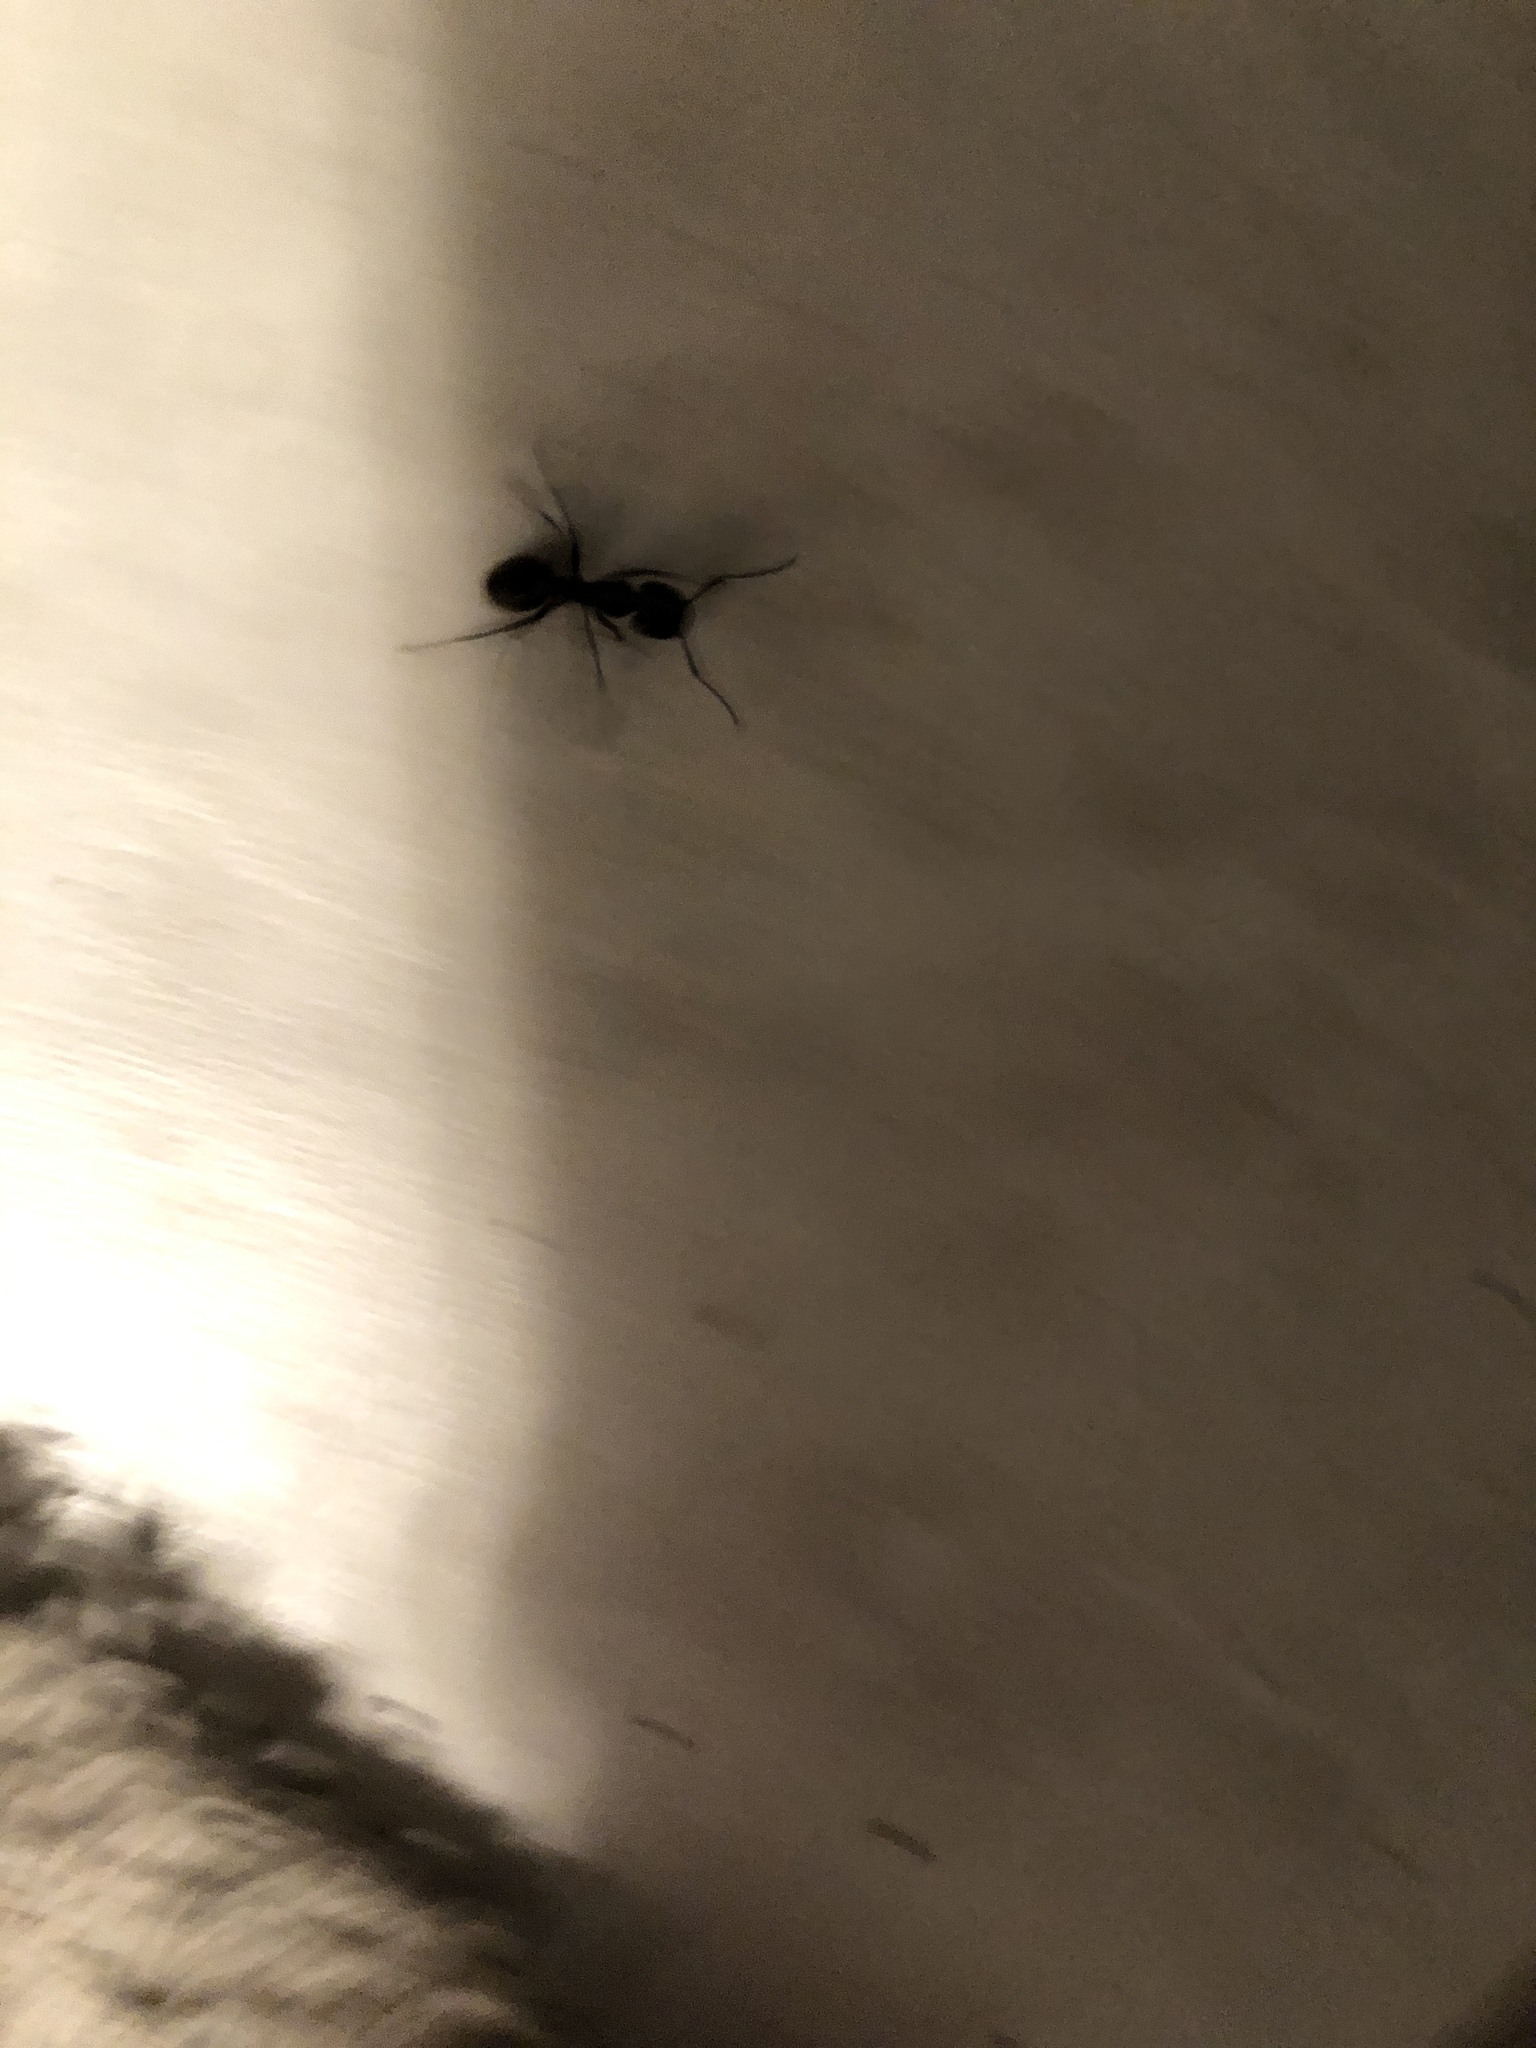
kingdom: Animalia
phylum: Arthropoda
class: Insecta
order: Hymenoptera
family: Formicidae
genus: Camponotus
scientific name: Camponotus pennsylvanicus
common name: Black carpenter ant
